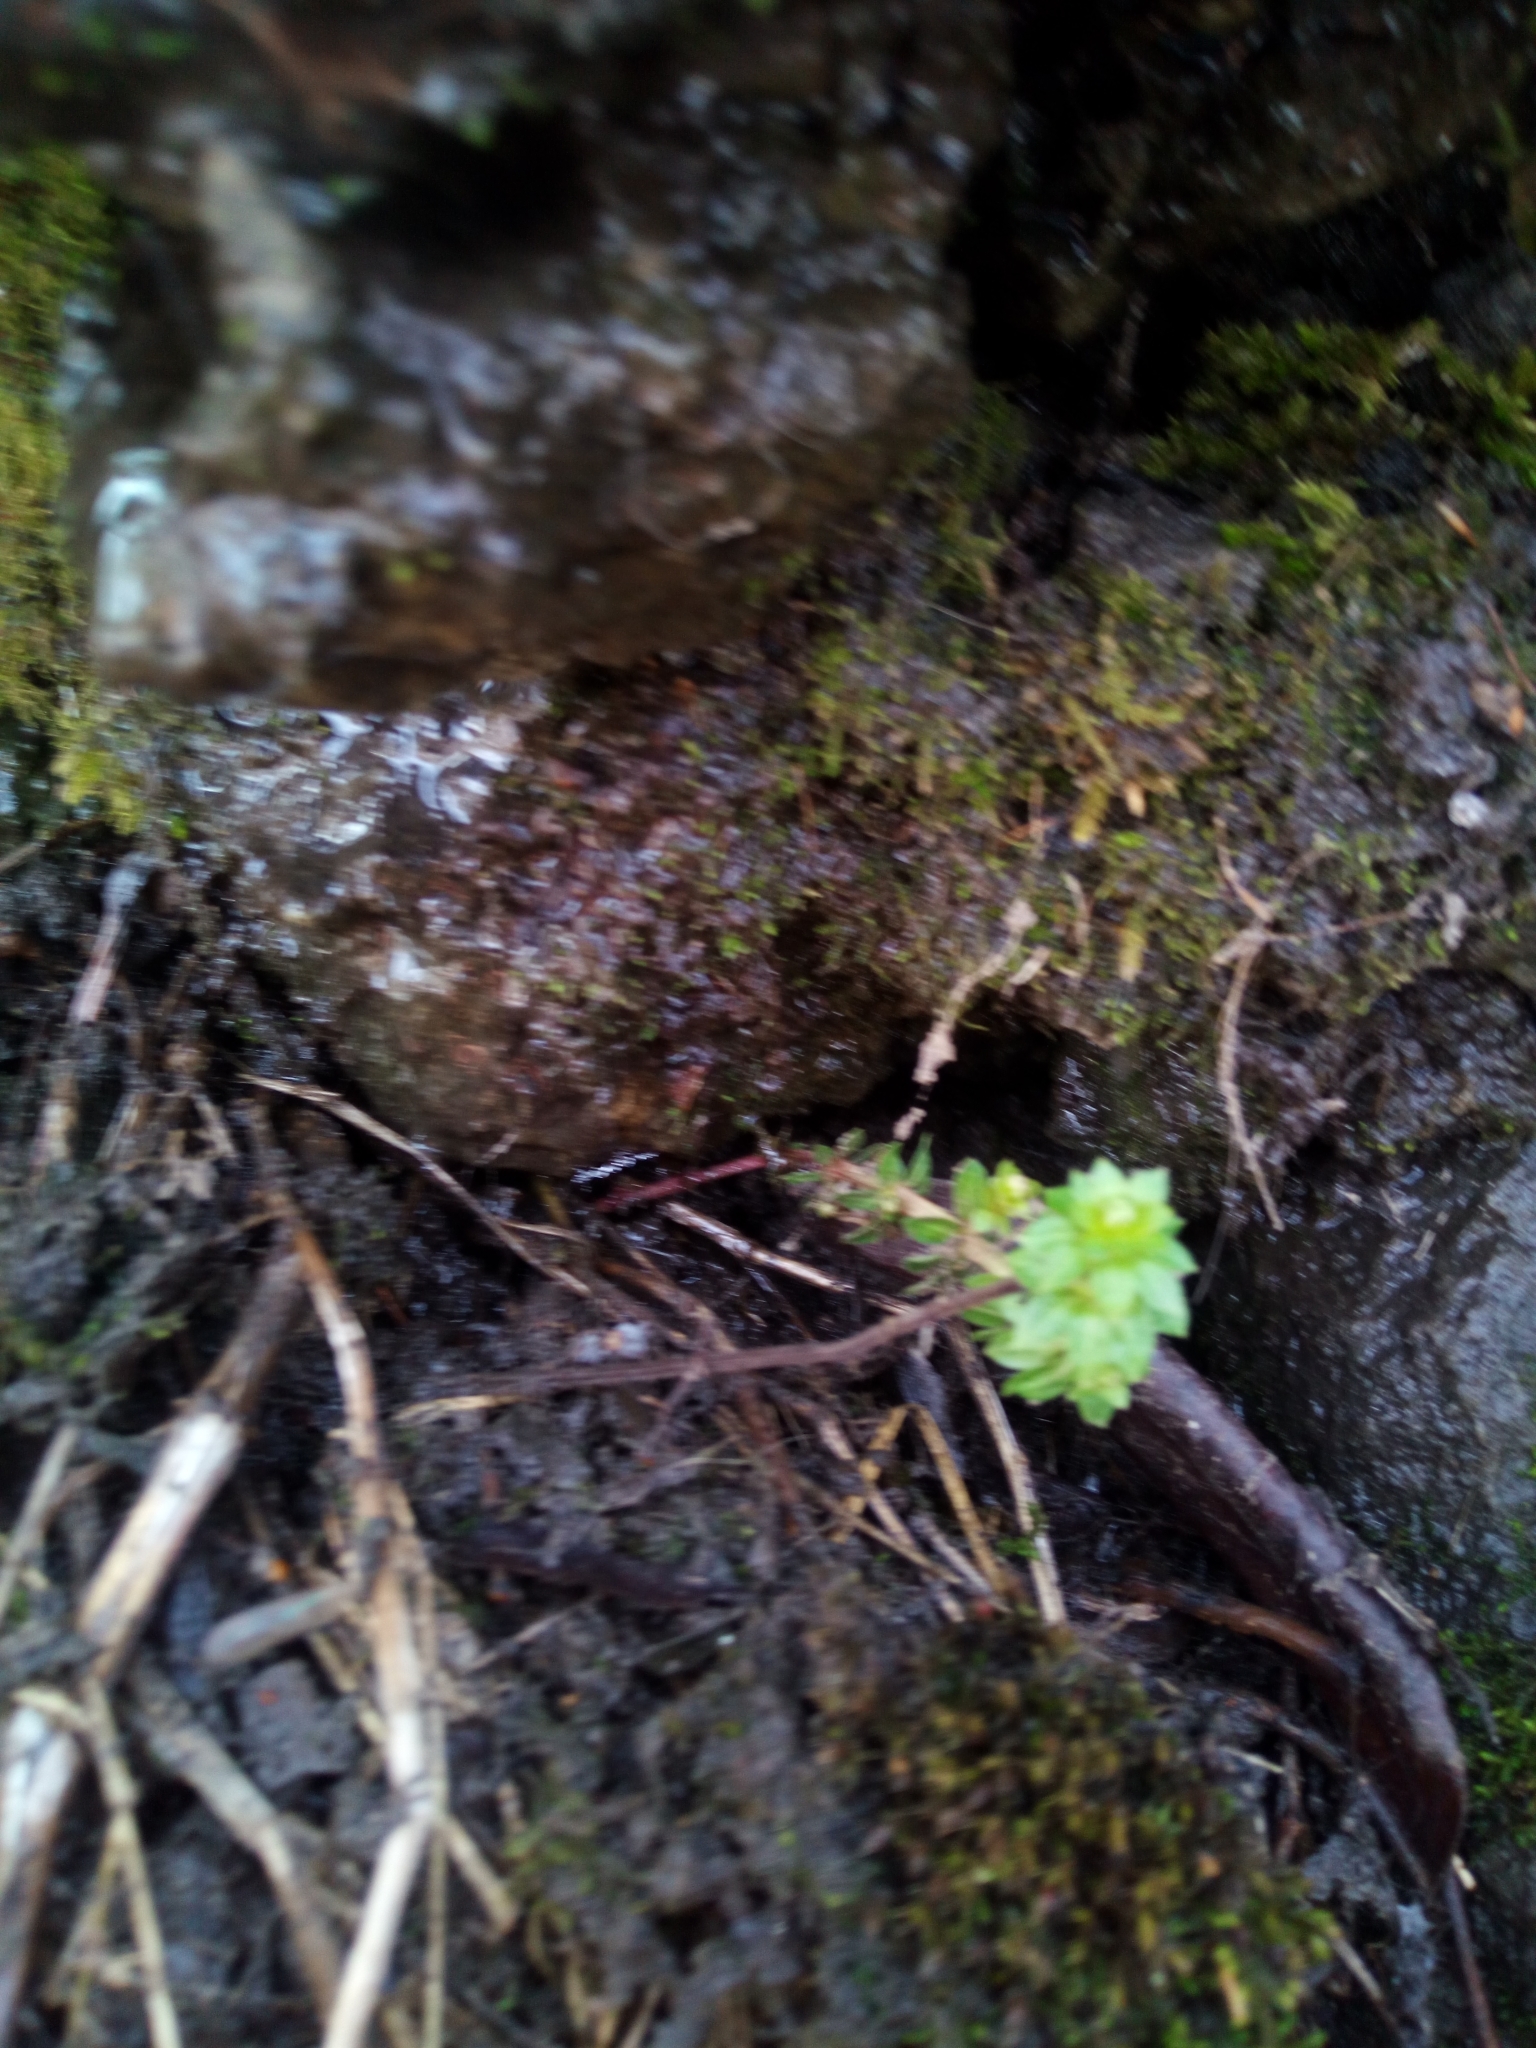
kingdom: Plantae
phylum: Tracheophyta
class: Magnoliopsida
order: Gentianales
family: Rubiaceae
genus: Galium
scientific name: Galium mollugo
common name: Hedge bedstraw
